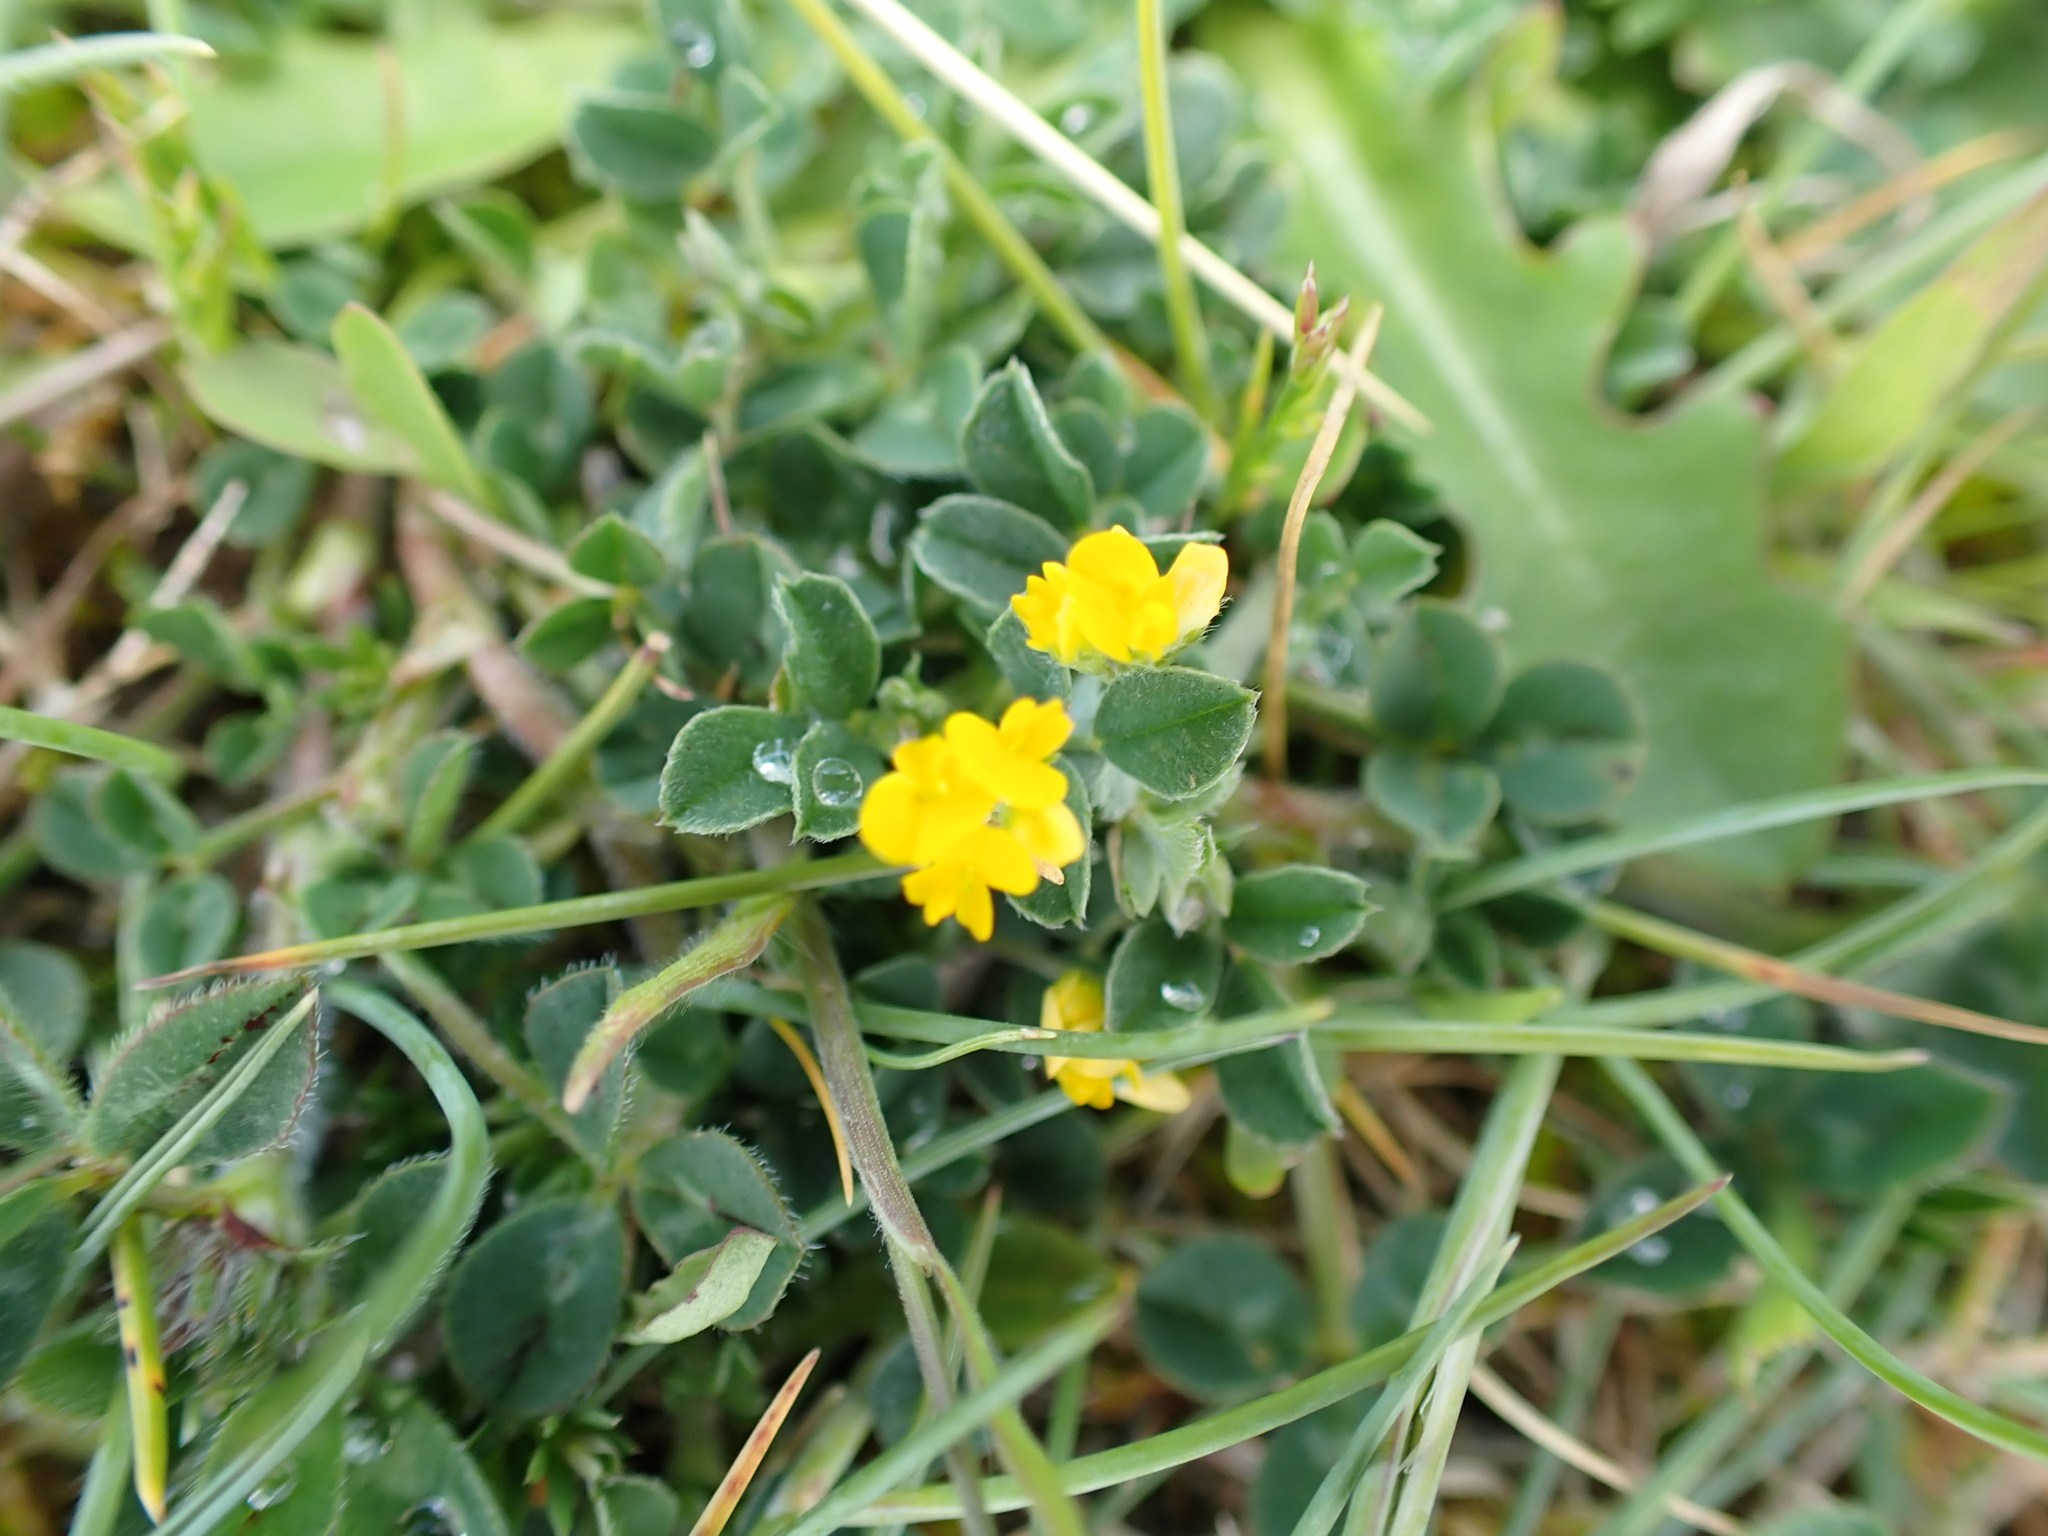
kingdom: Plantae
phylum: Tracheophyta
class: Magnoliopsida
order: Fabales
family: Fabaceae
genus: Medicago
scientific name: Medicago lupulina
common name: Black medick
